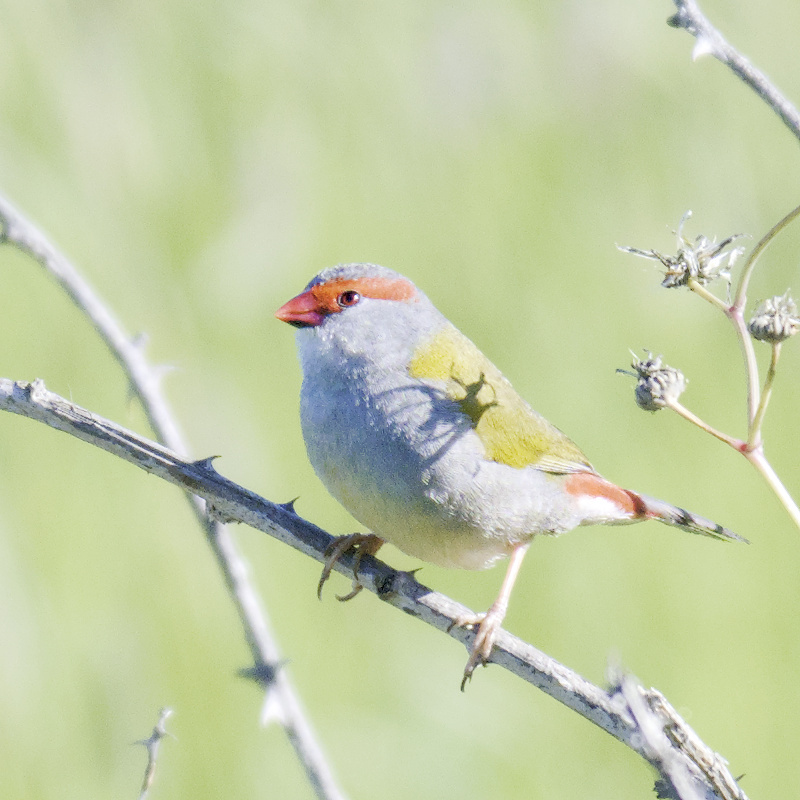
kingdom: Animalia
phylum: Chordata
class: Aves
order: Passeriformes
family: Estrildidae
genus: Neochmia
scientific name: Neochmia temporalis
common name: Red-browed finch
